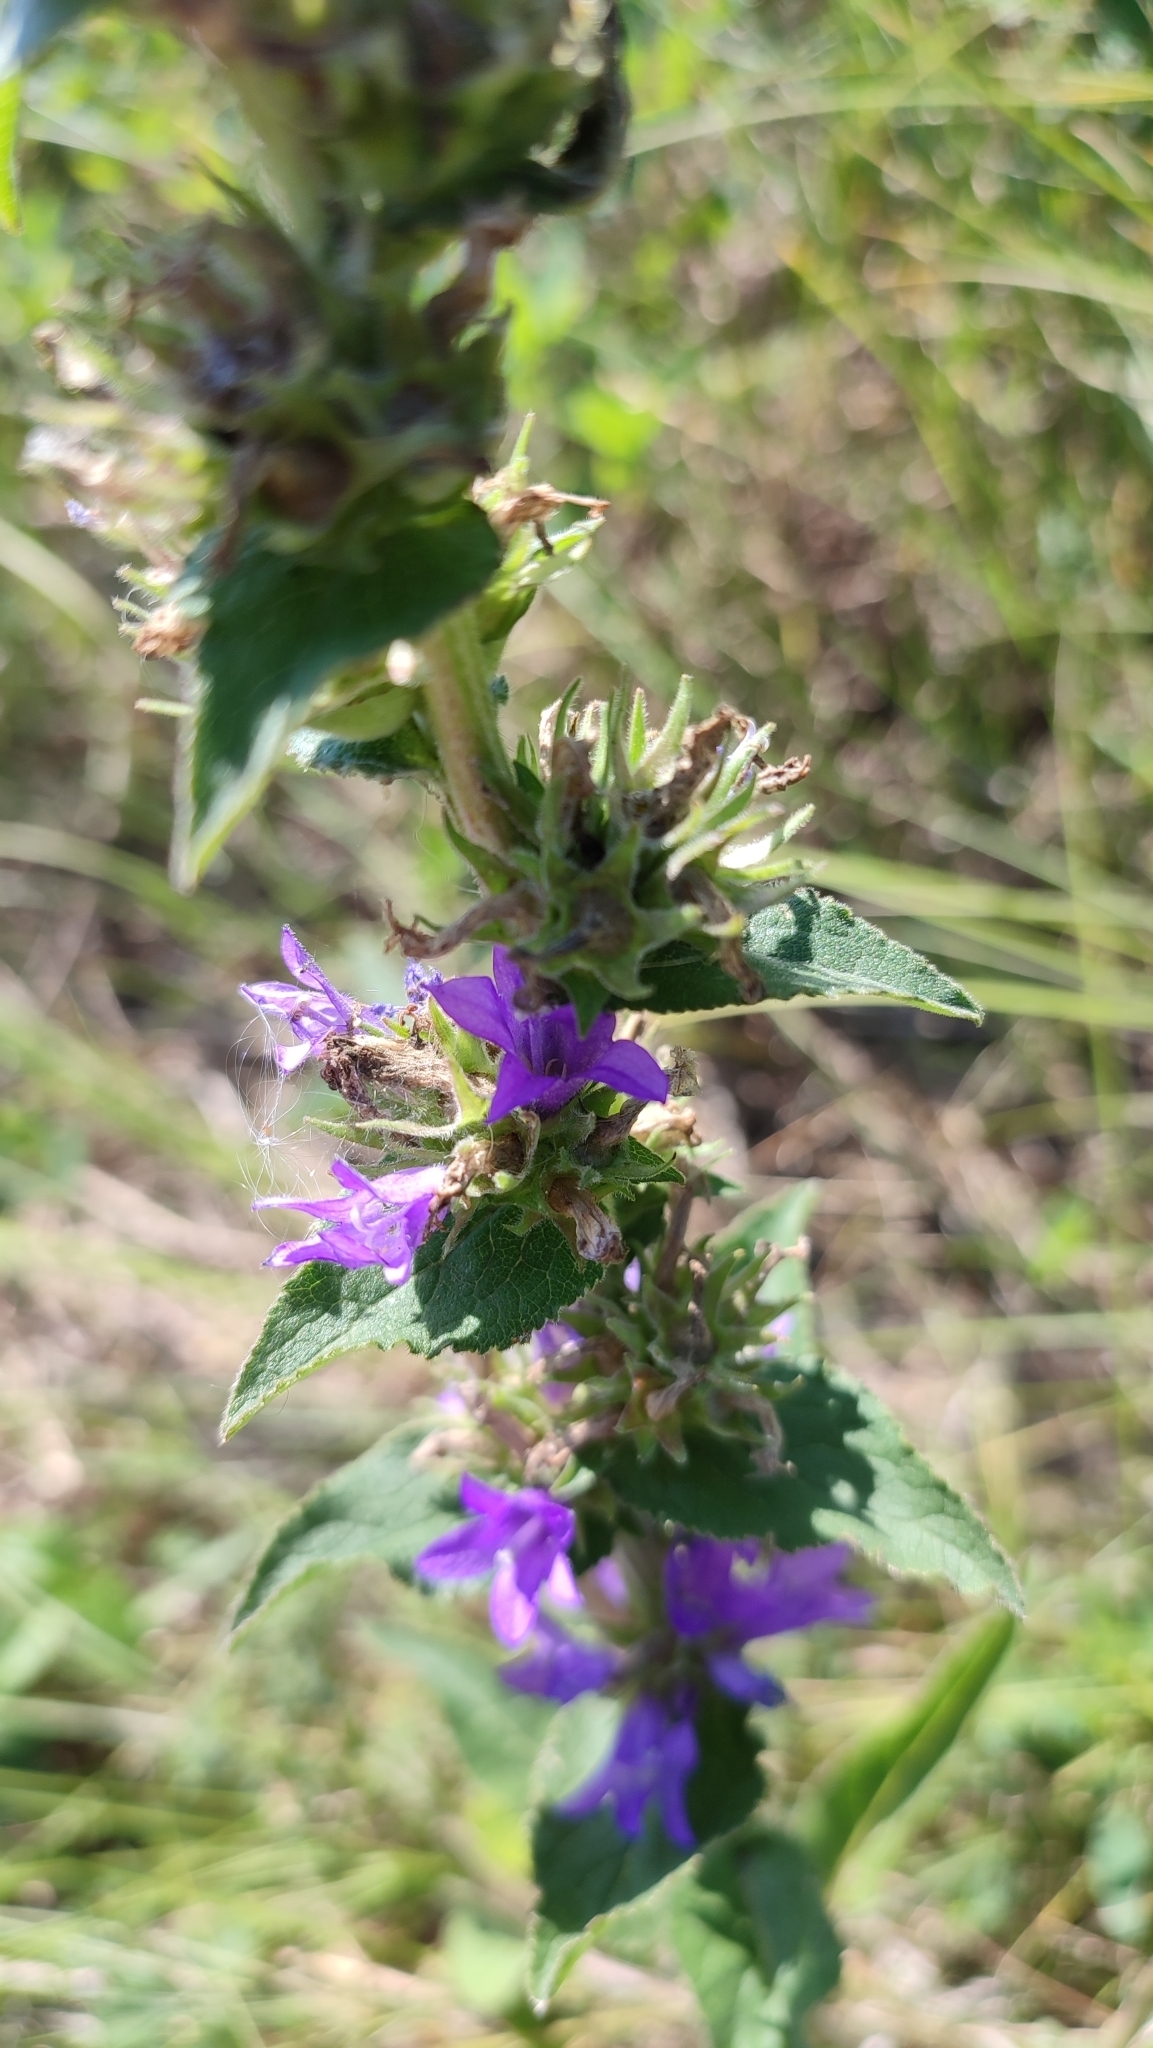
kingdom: Plantae
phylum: Tracheophyta
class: Magnoliopsida
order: Asterales
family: Campanulaceae
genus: Campanula
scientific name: Campanula glomerata
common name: Clustered bellflower
